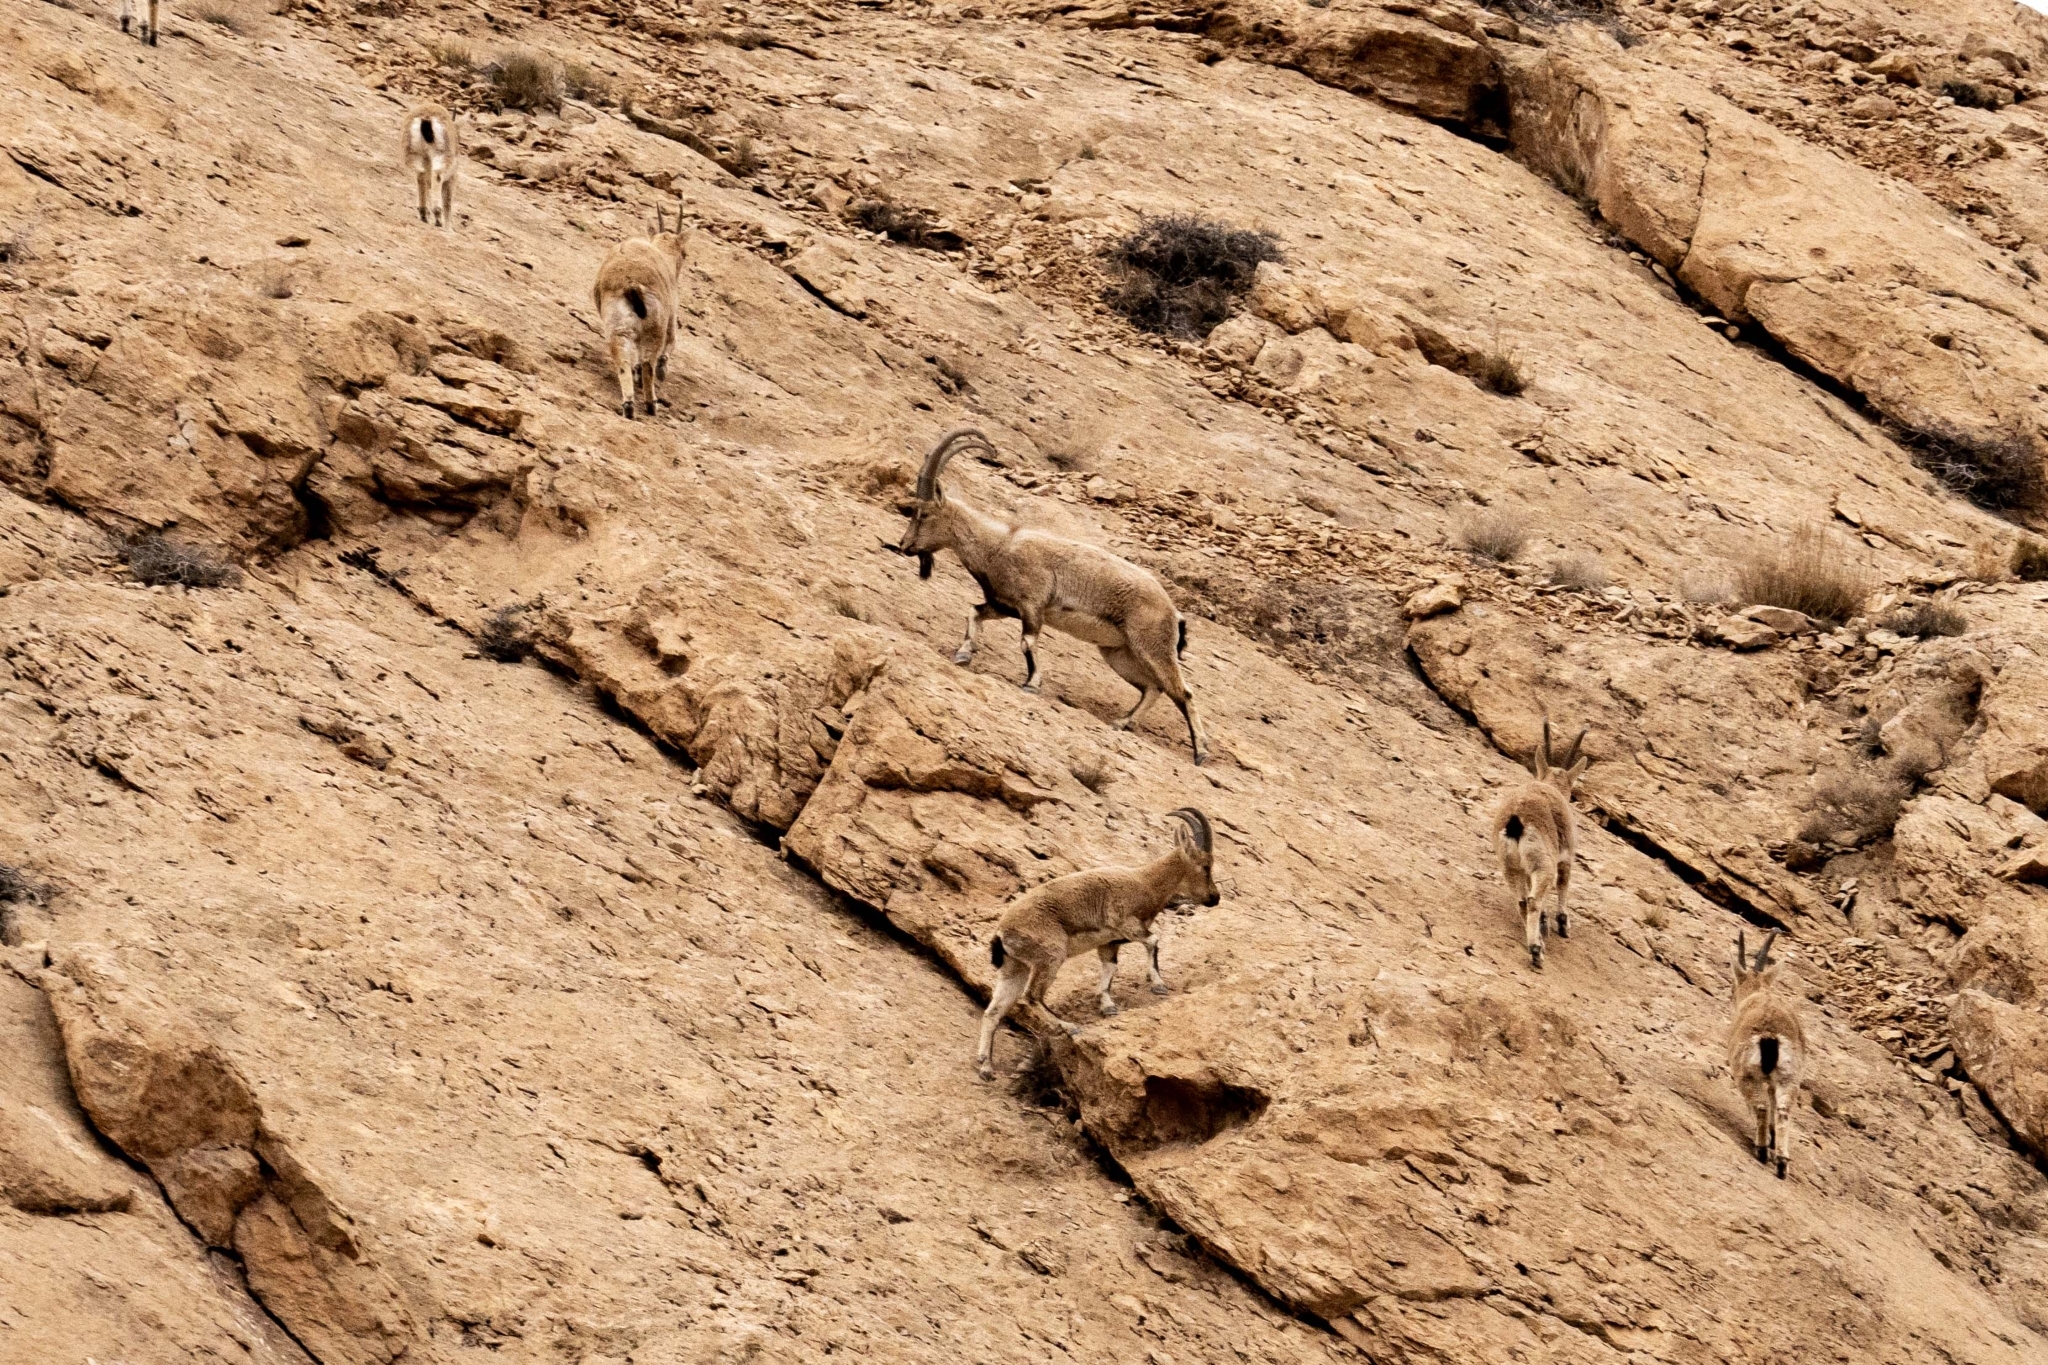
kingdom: Animalia
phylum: Chordata
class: Mammalia
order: Artiodactyla
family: Bovidae
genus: Capra
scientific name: Capra hircus
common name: Domestic goat
